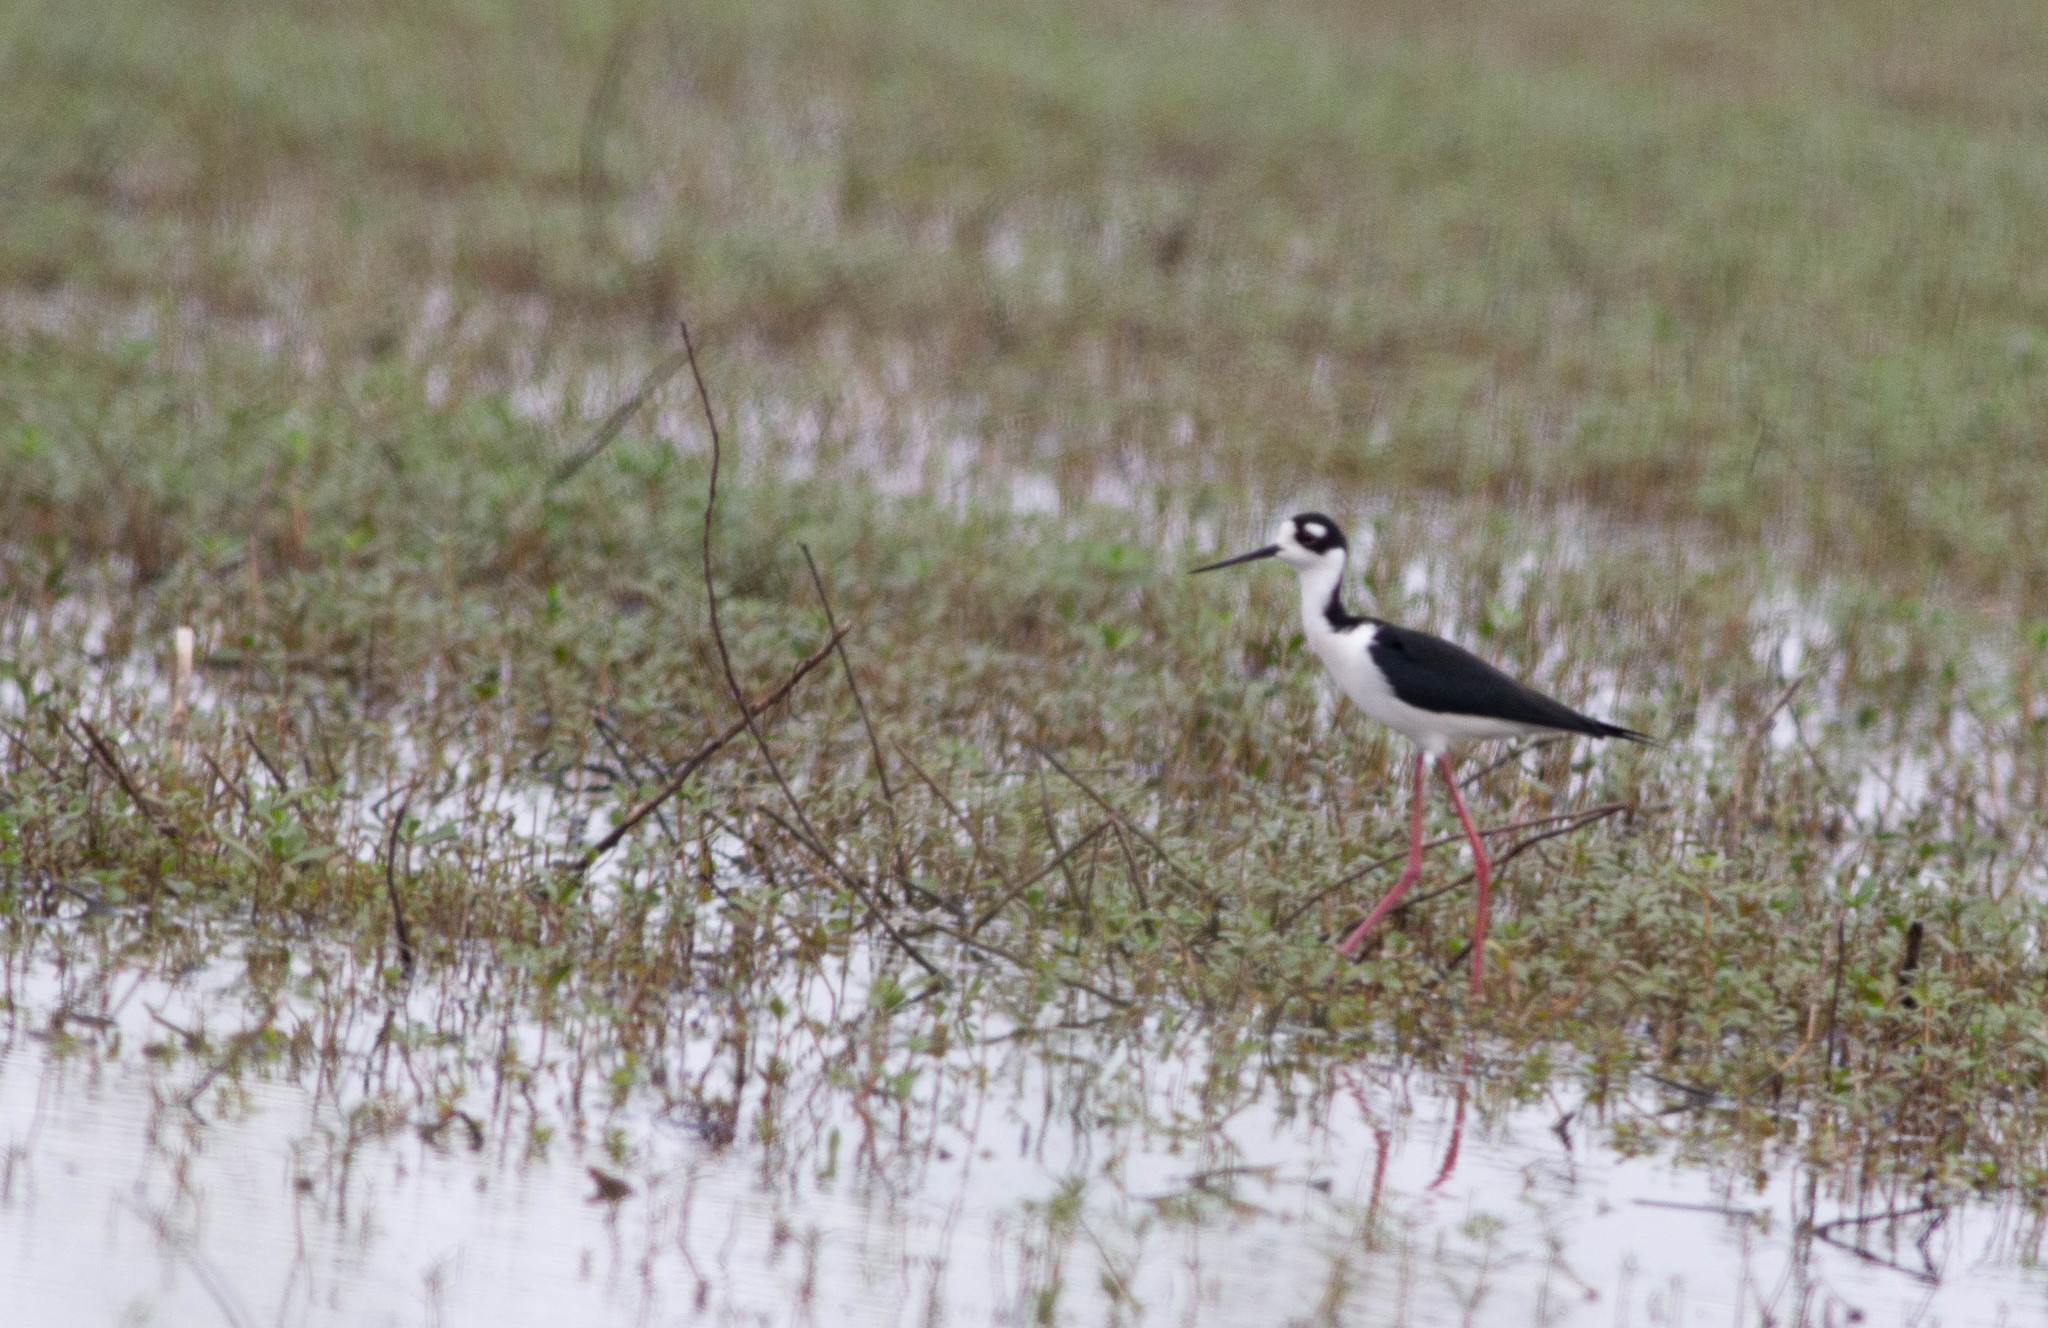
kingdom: Animalia
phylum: Chordata
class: Aves
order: Charadriiformes
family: Recurvirostridae
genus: Himantopus
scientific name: Himantopus mexicanus
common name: Black-necked stilt
